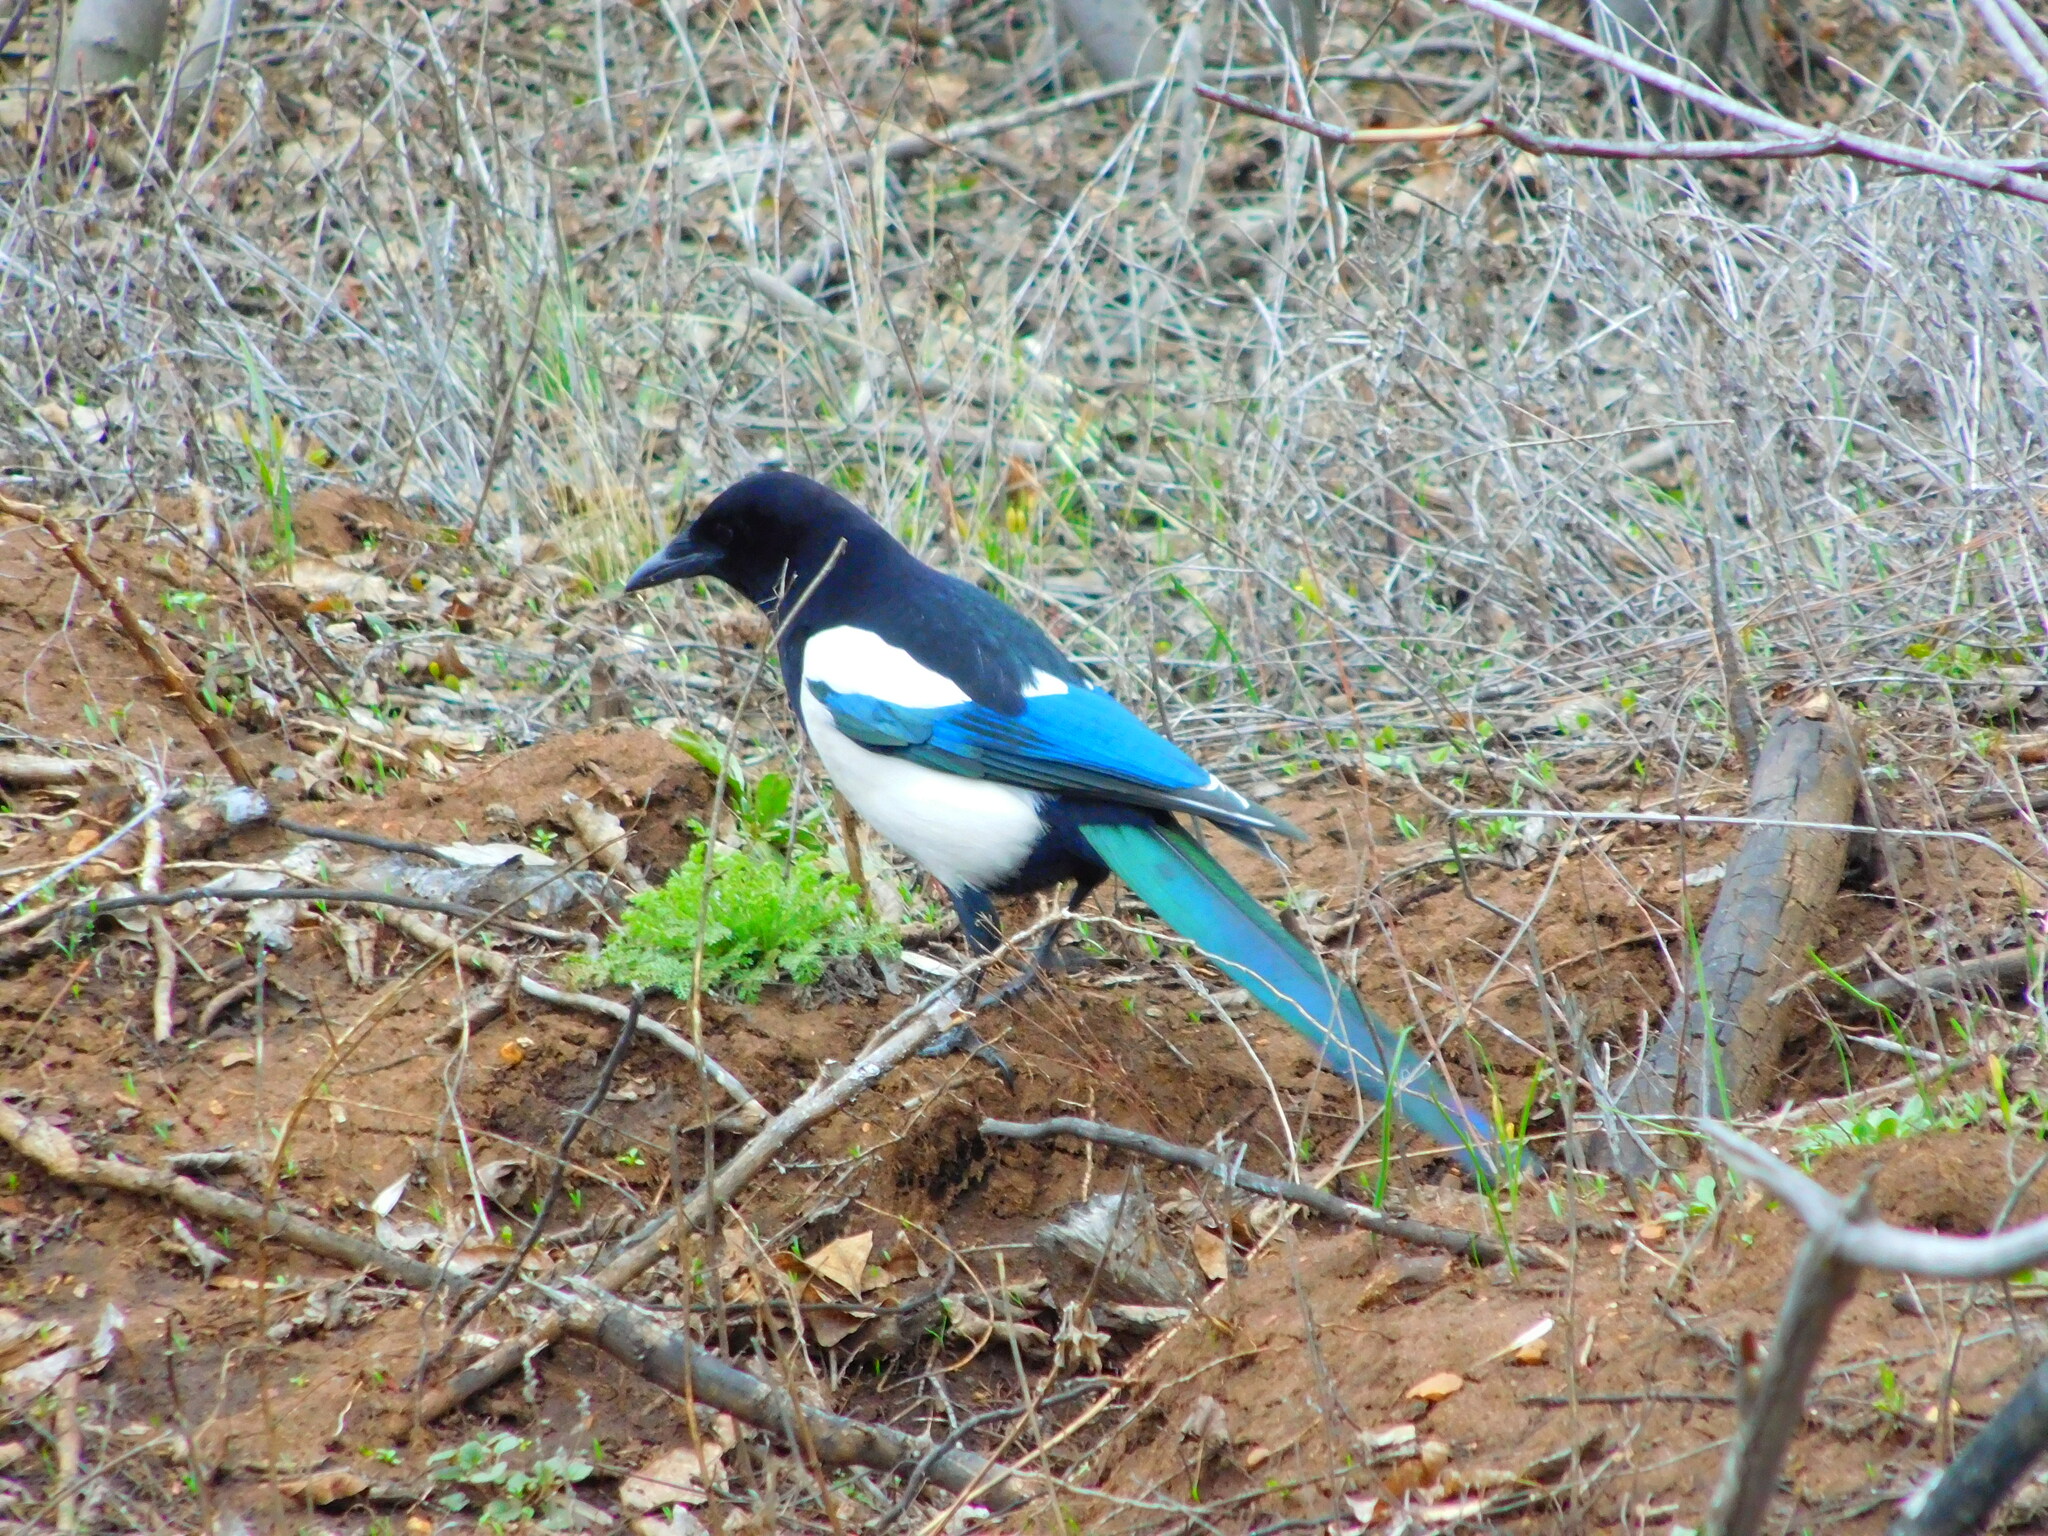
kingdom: Animalia
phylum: Chordata
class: Aves
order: Passeriformes
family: Corvidae
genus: Pica
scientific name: Pica pica
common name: Eurasian magpie
